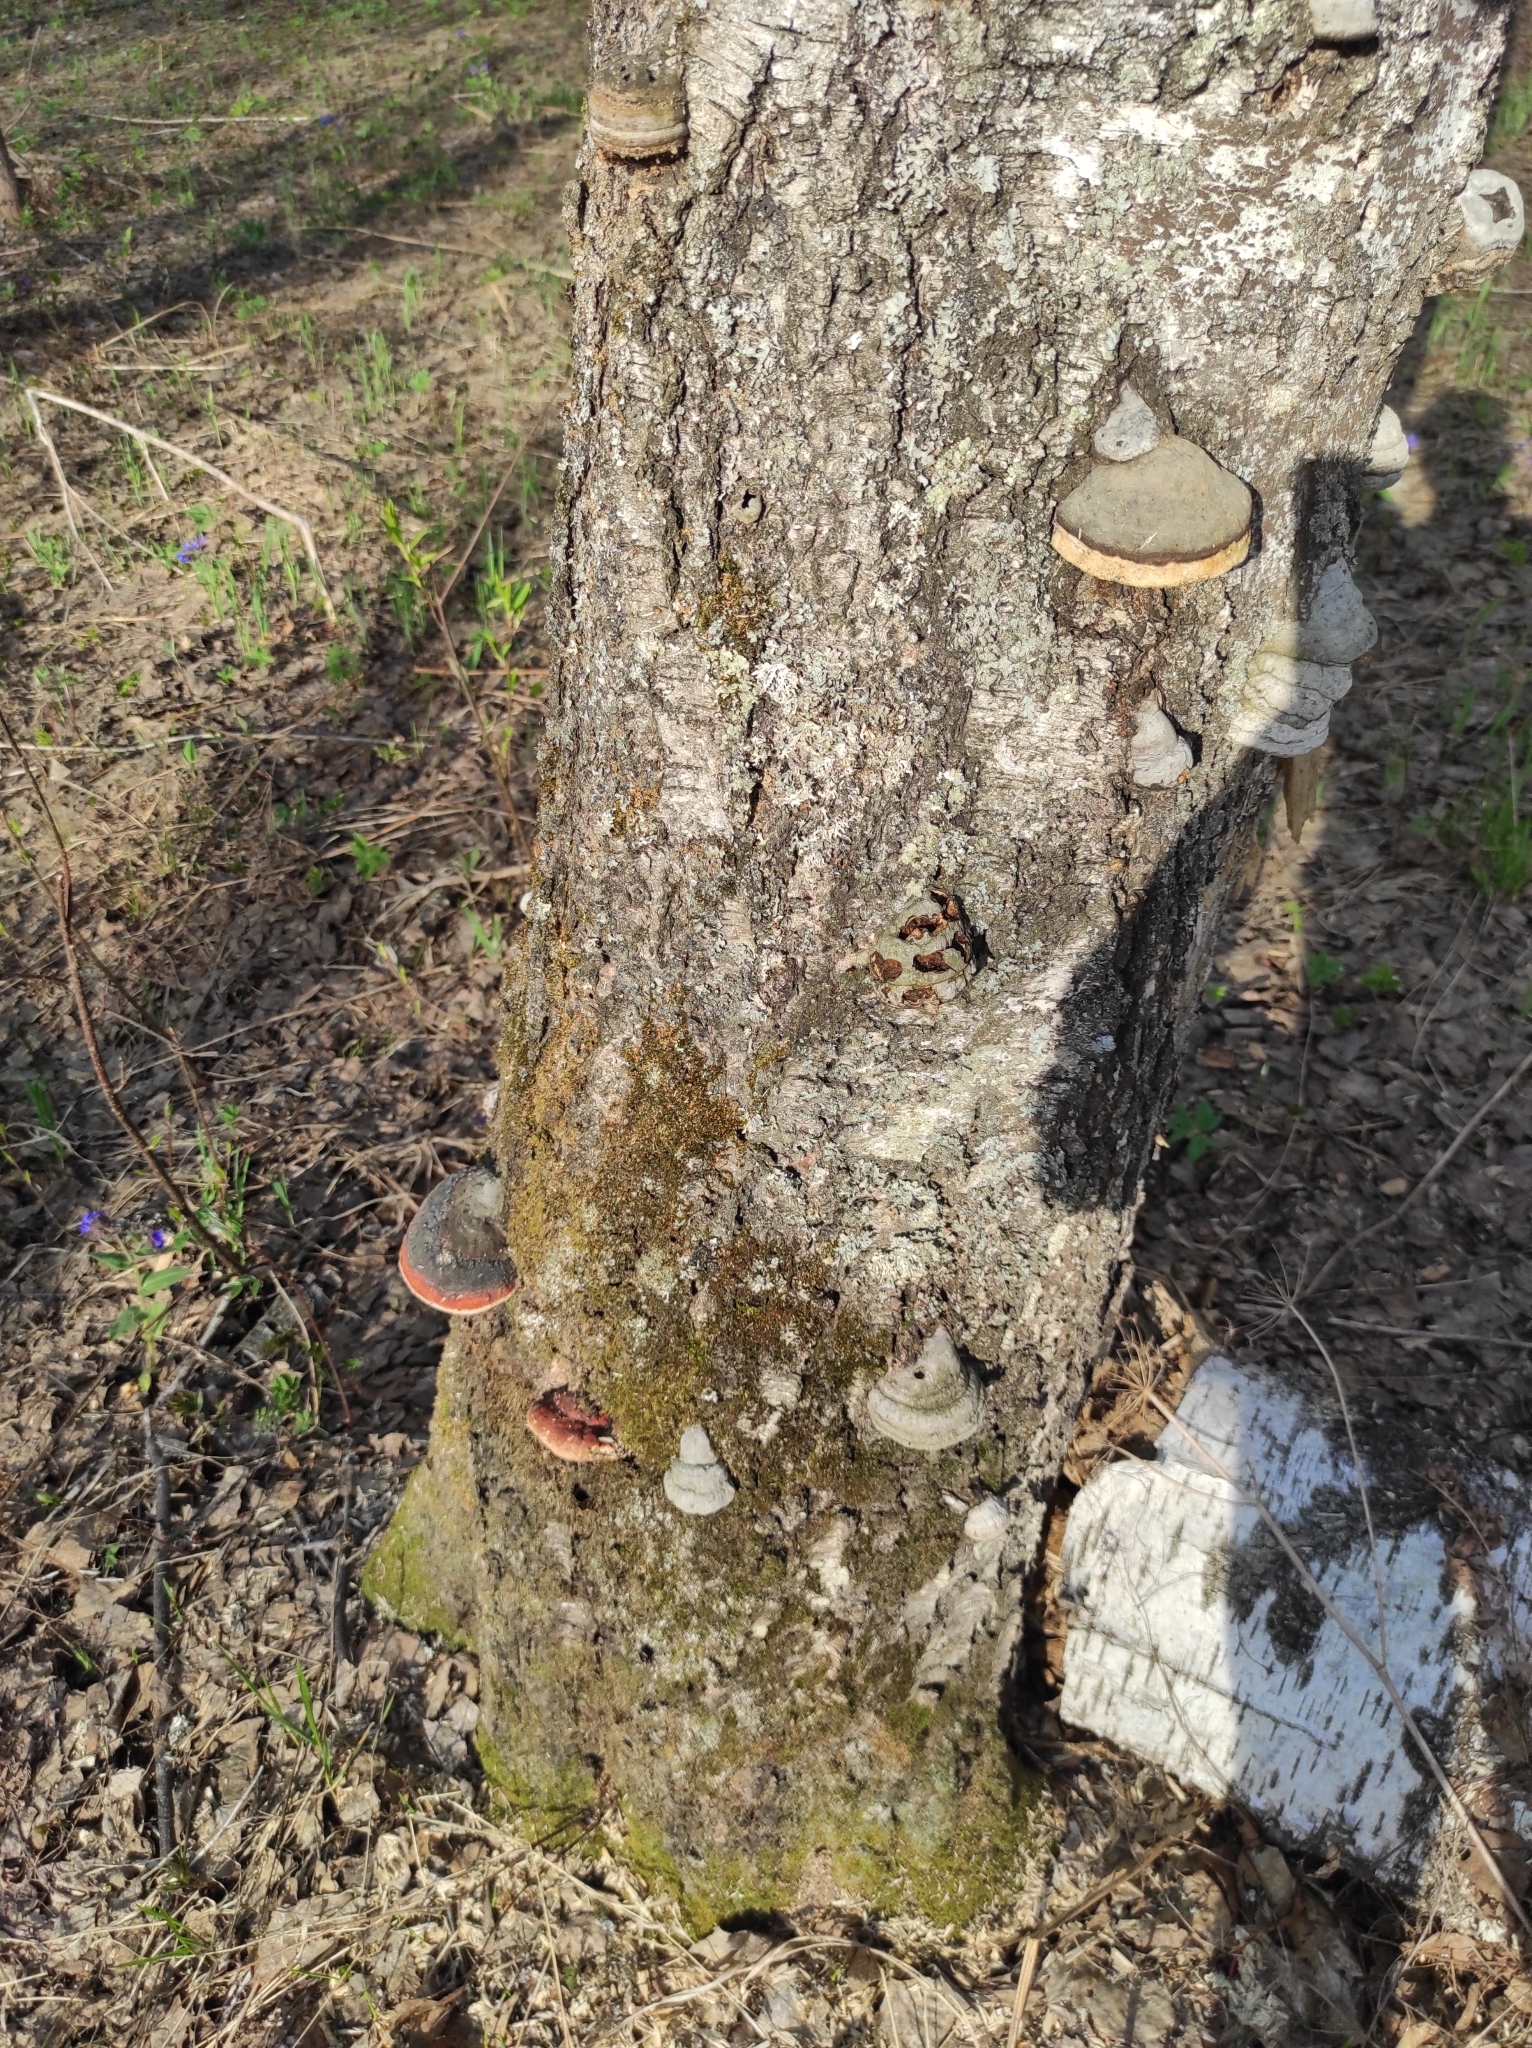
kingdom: Fungi
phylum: Basidiomycota
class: Agaricomycetes
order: Polyporales
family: Fomitopsidaceae
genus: Fomitopsis
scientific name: Fomitopsis pinicola
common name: Red-belted bracket
